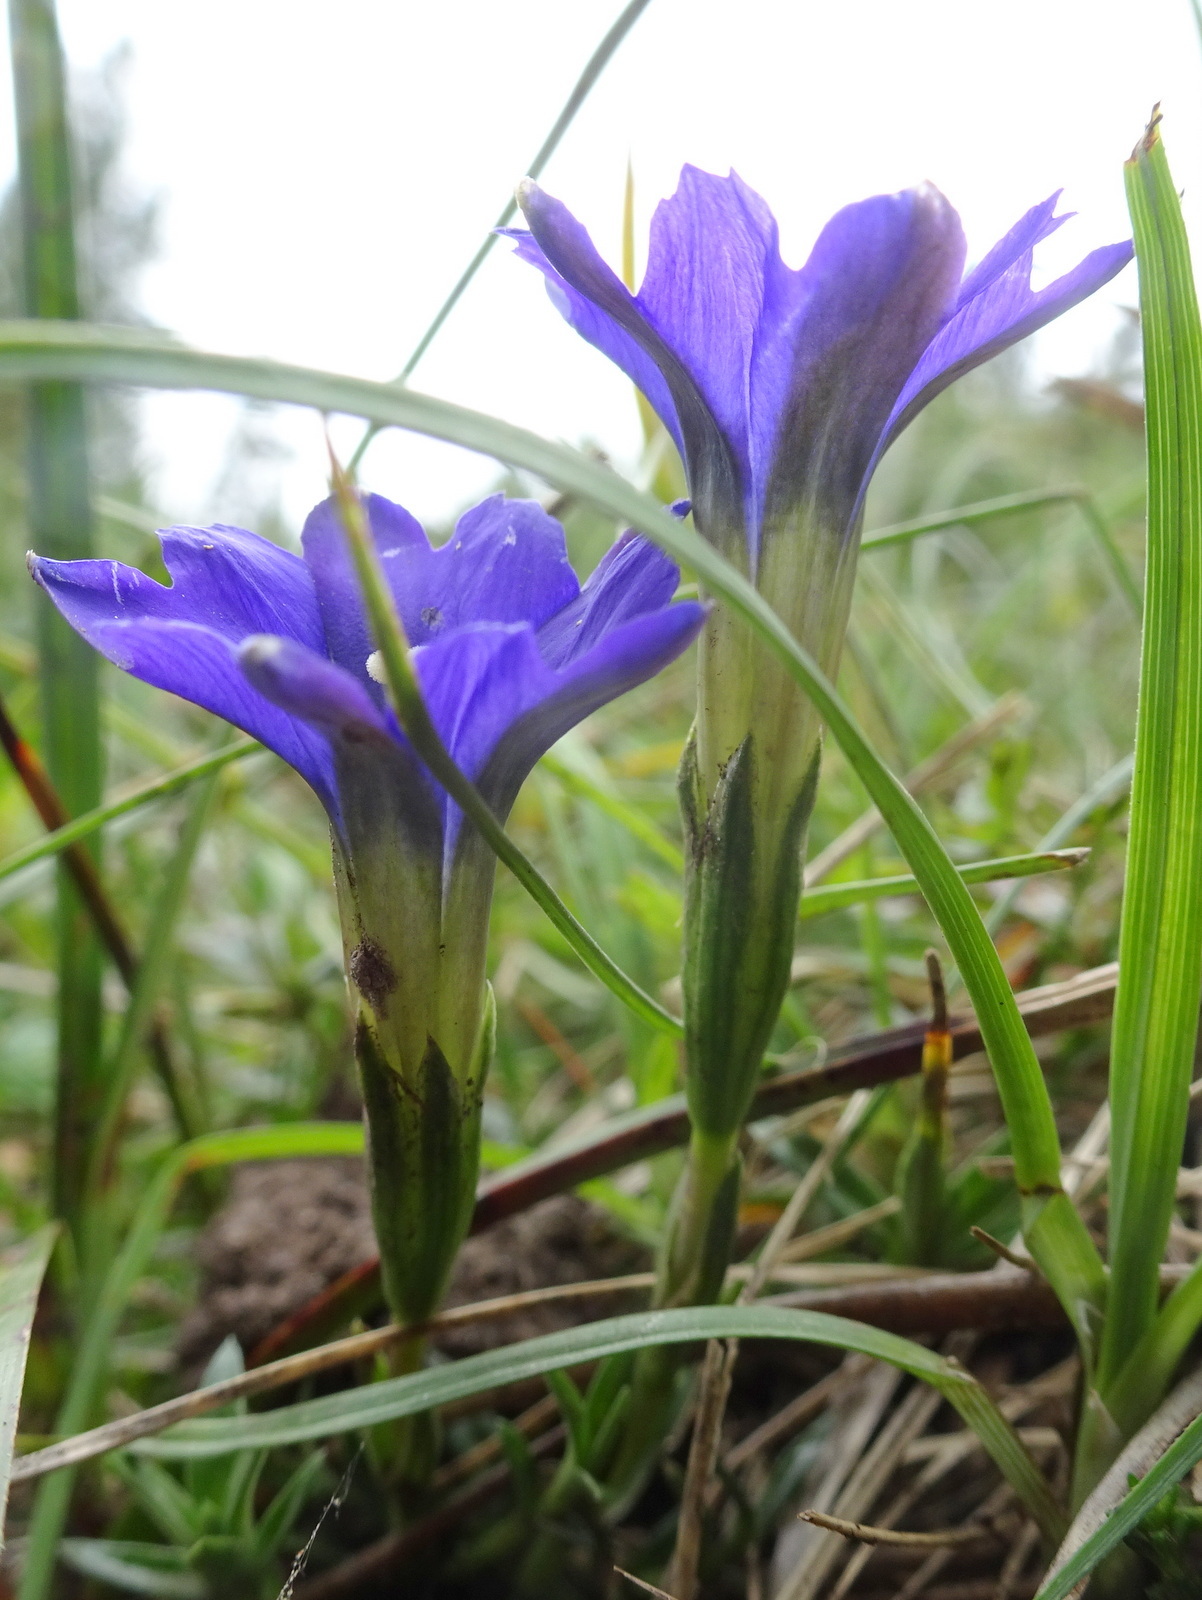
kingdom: Plantae
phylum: Tracheophyta
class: Magnoliopsida
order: Gentianales
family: Gentianaceae
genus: Gentiana
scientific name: Gentiana pyrenaica
